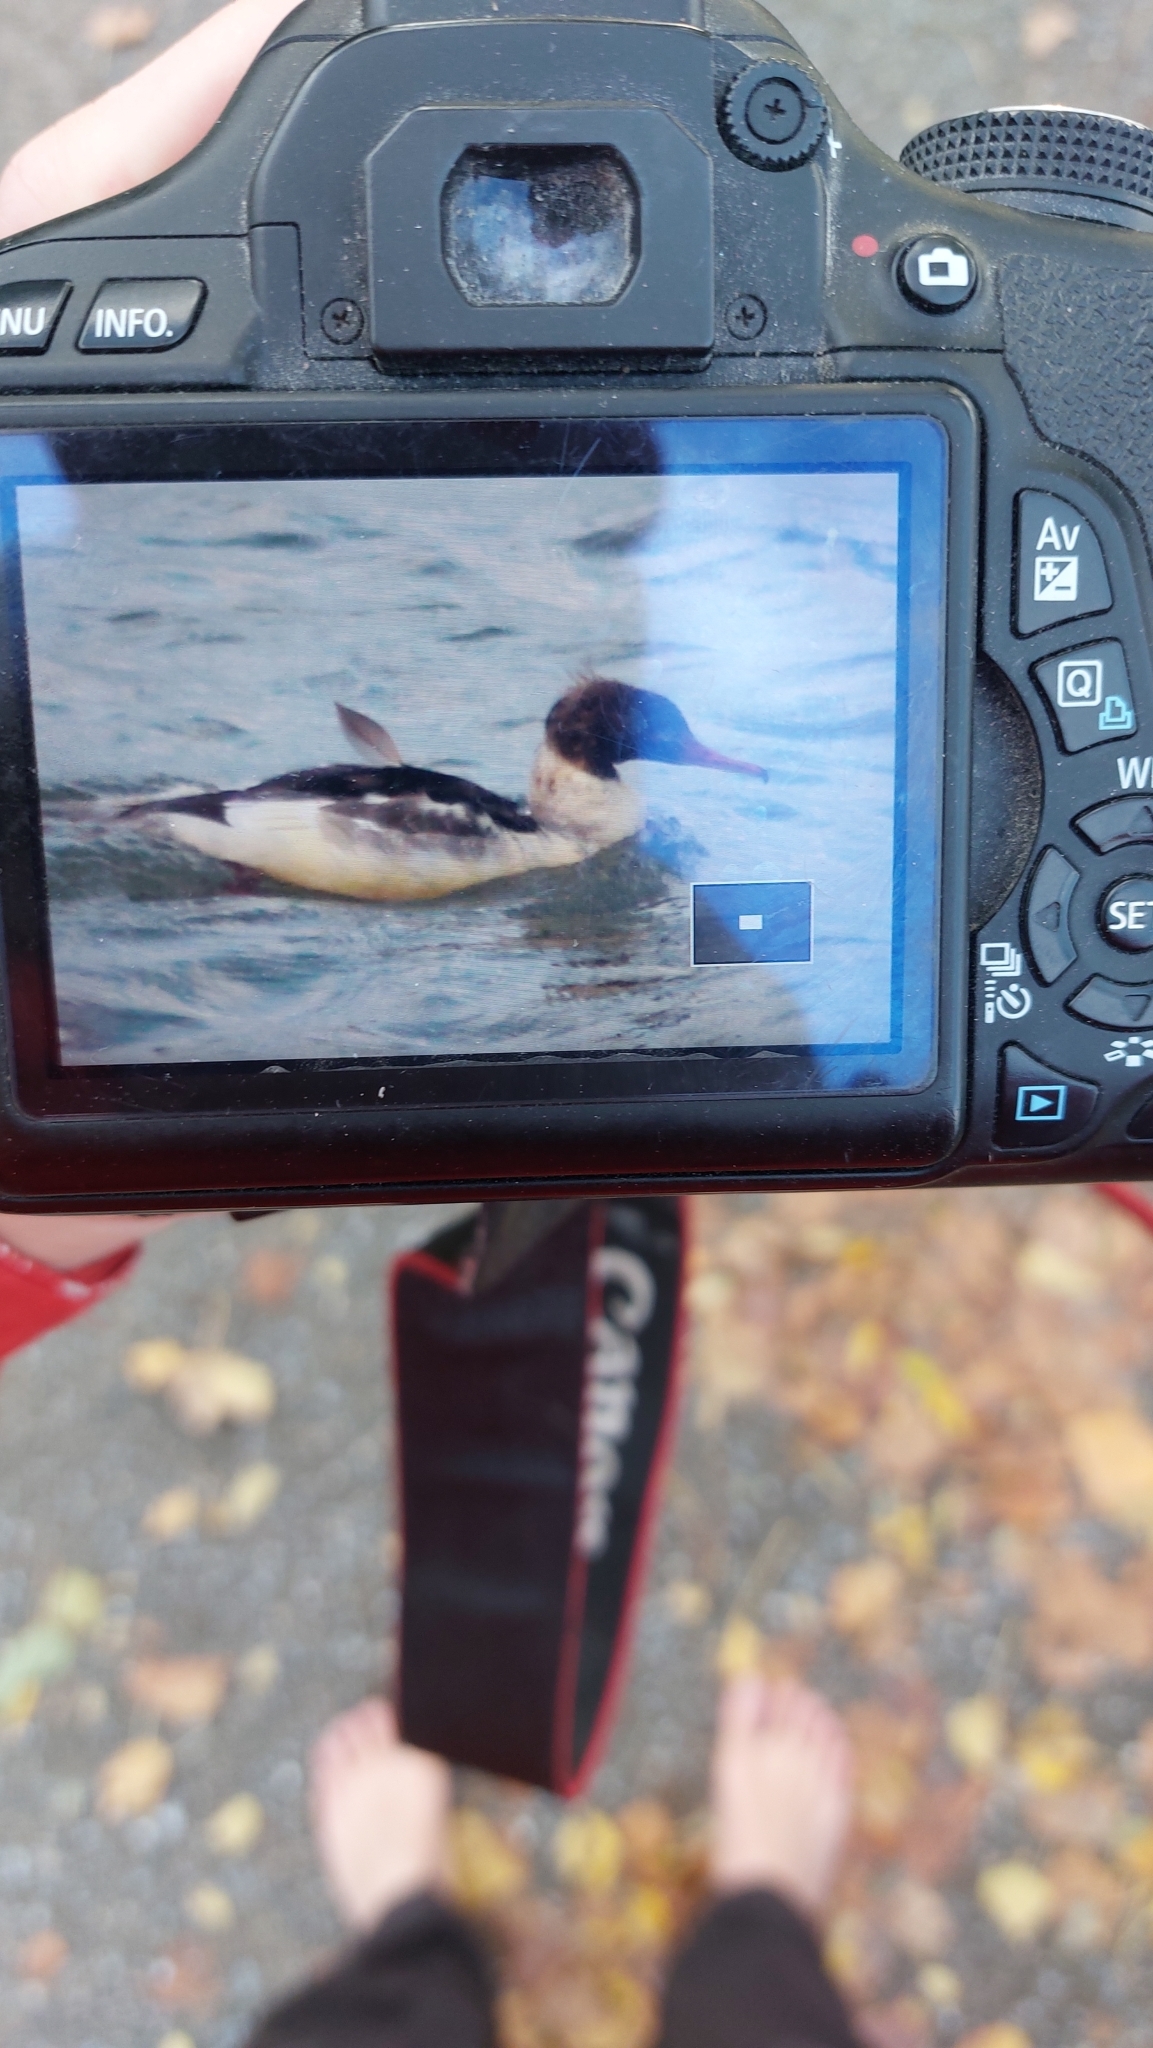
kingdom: Animalia
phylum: Chordata
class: Aves
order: Anseriformes
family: Anatidae
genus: Mergus
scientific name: Mergus merganser
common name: Common merganser
